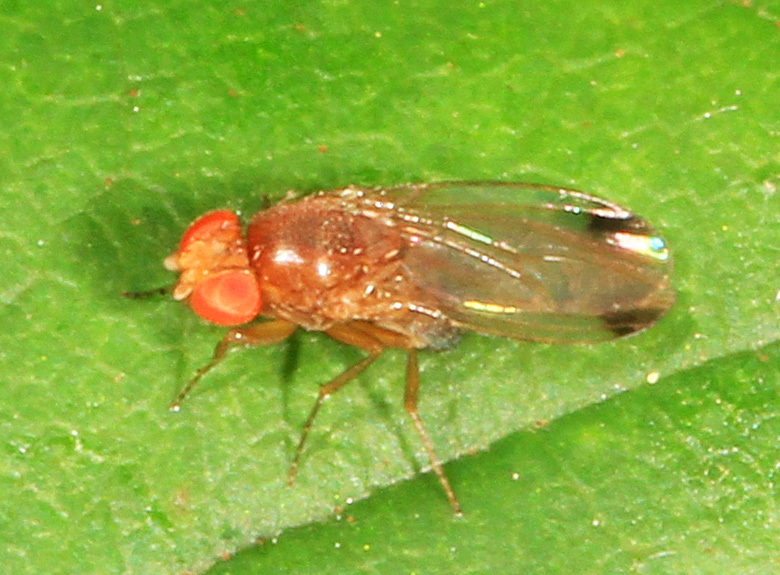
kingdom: Animalia
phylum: Arthropoda
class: Insecta
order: Diptera
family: Drosophilidae
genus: Drosophila
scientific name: Drosophila suzukii
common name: Spotted-wing drosophila
